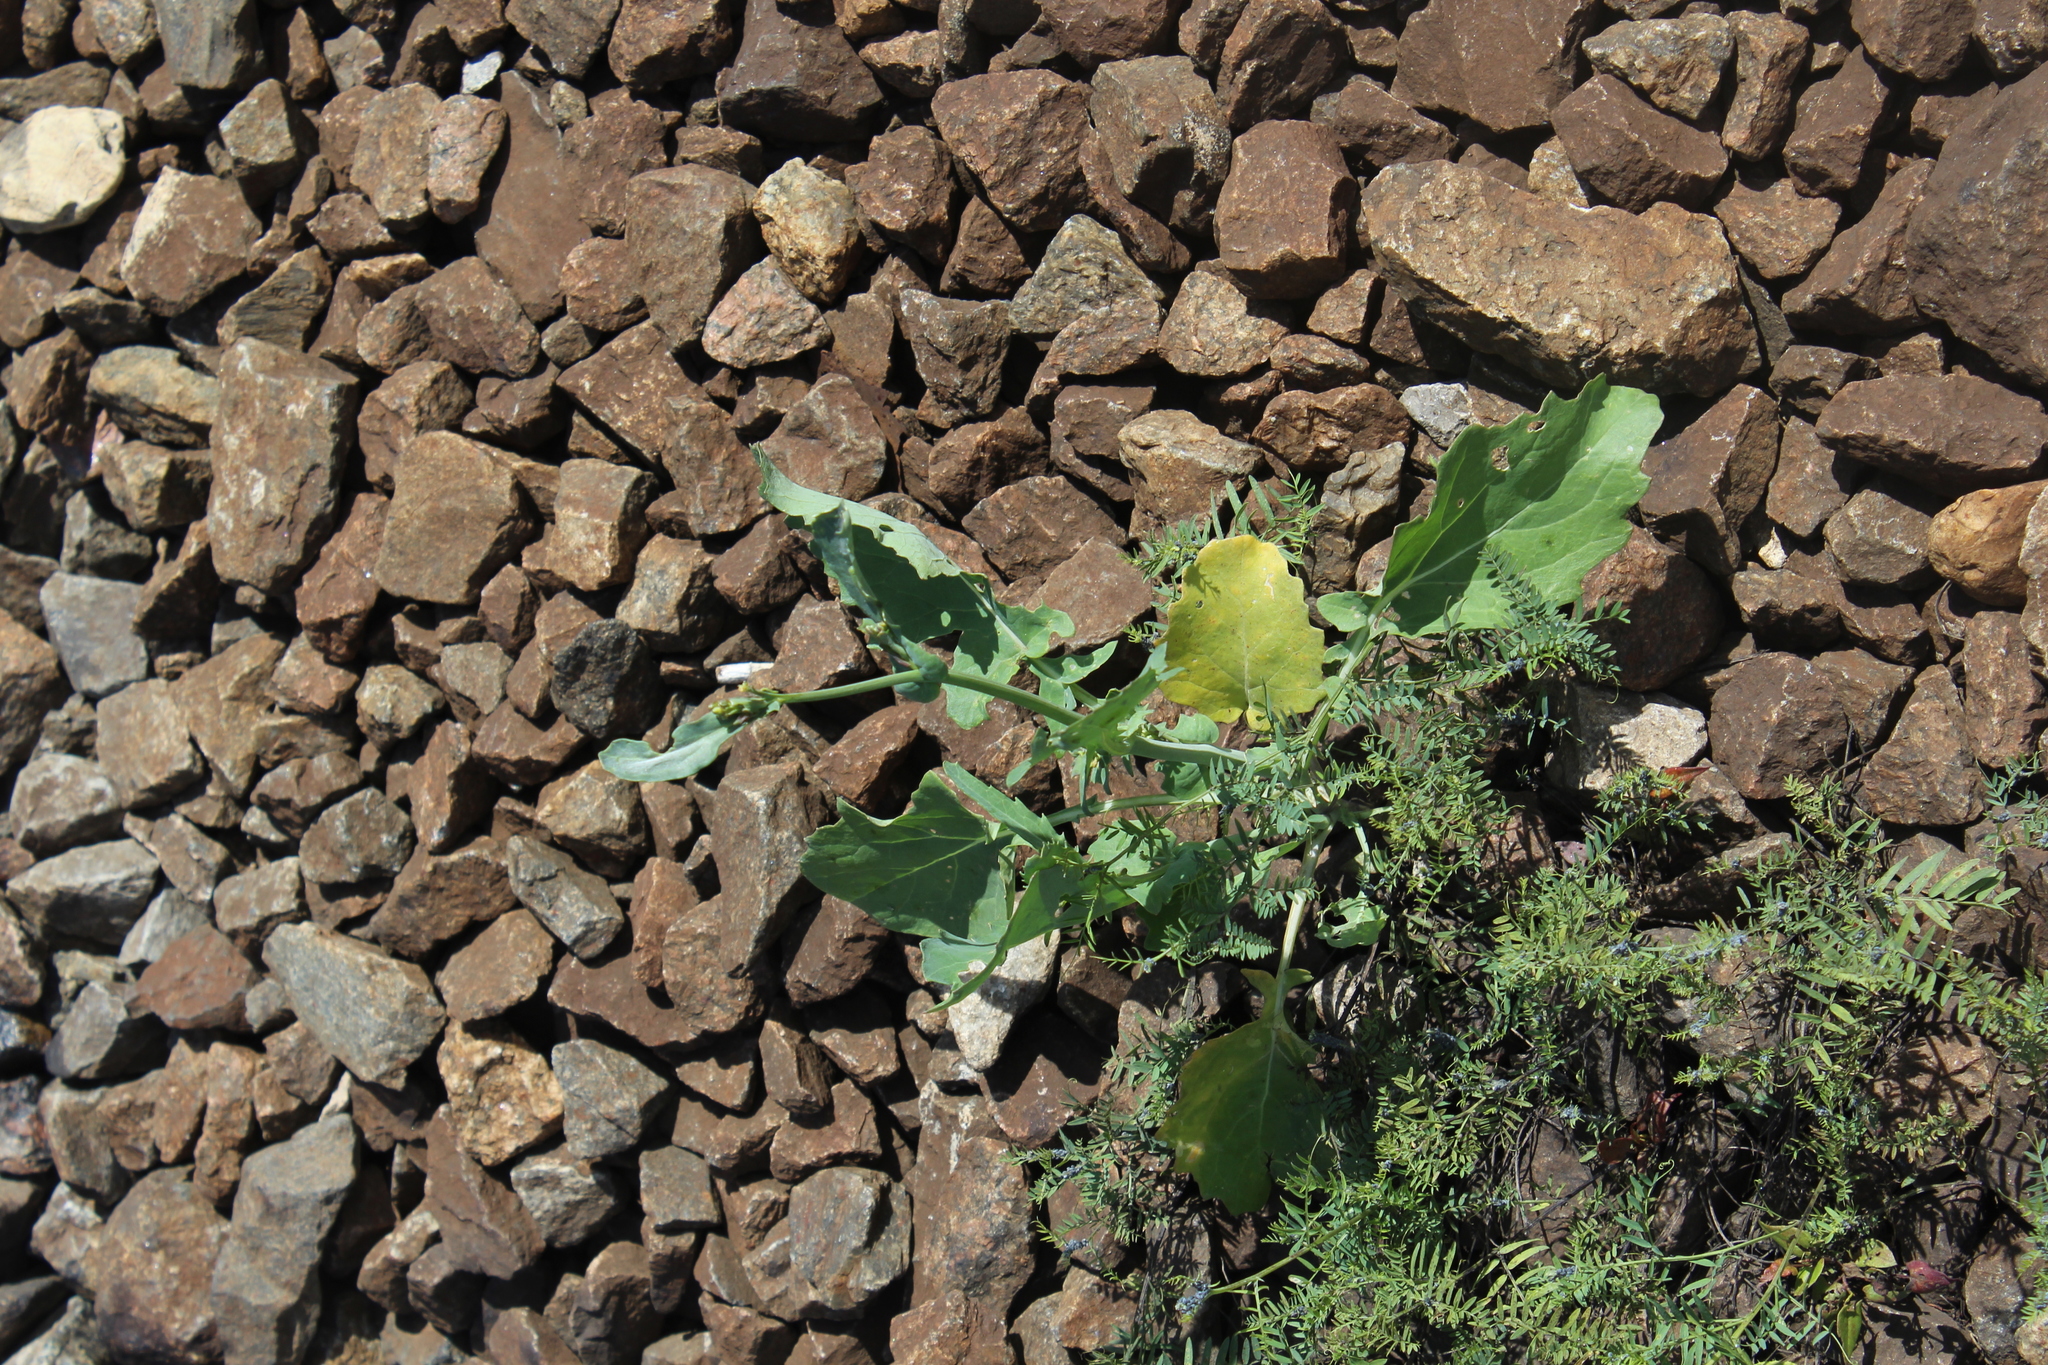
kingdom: Plantae
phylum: Tracheophyta
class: Magnoliopsida
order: Brassicales
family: Brassicaceae
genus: Brassica
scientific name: Brassica napus
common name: Rape
